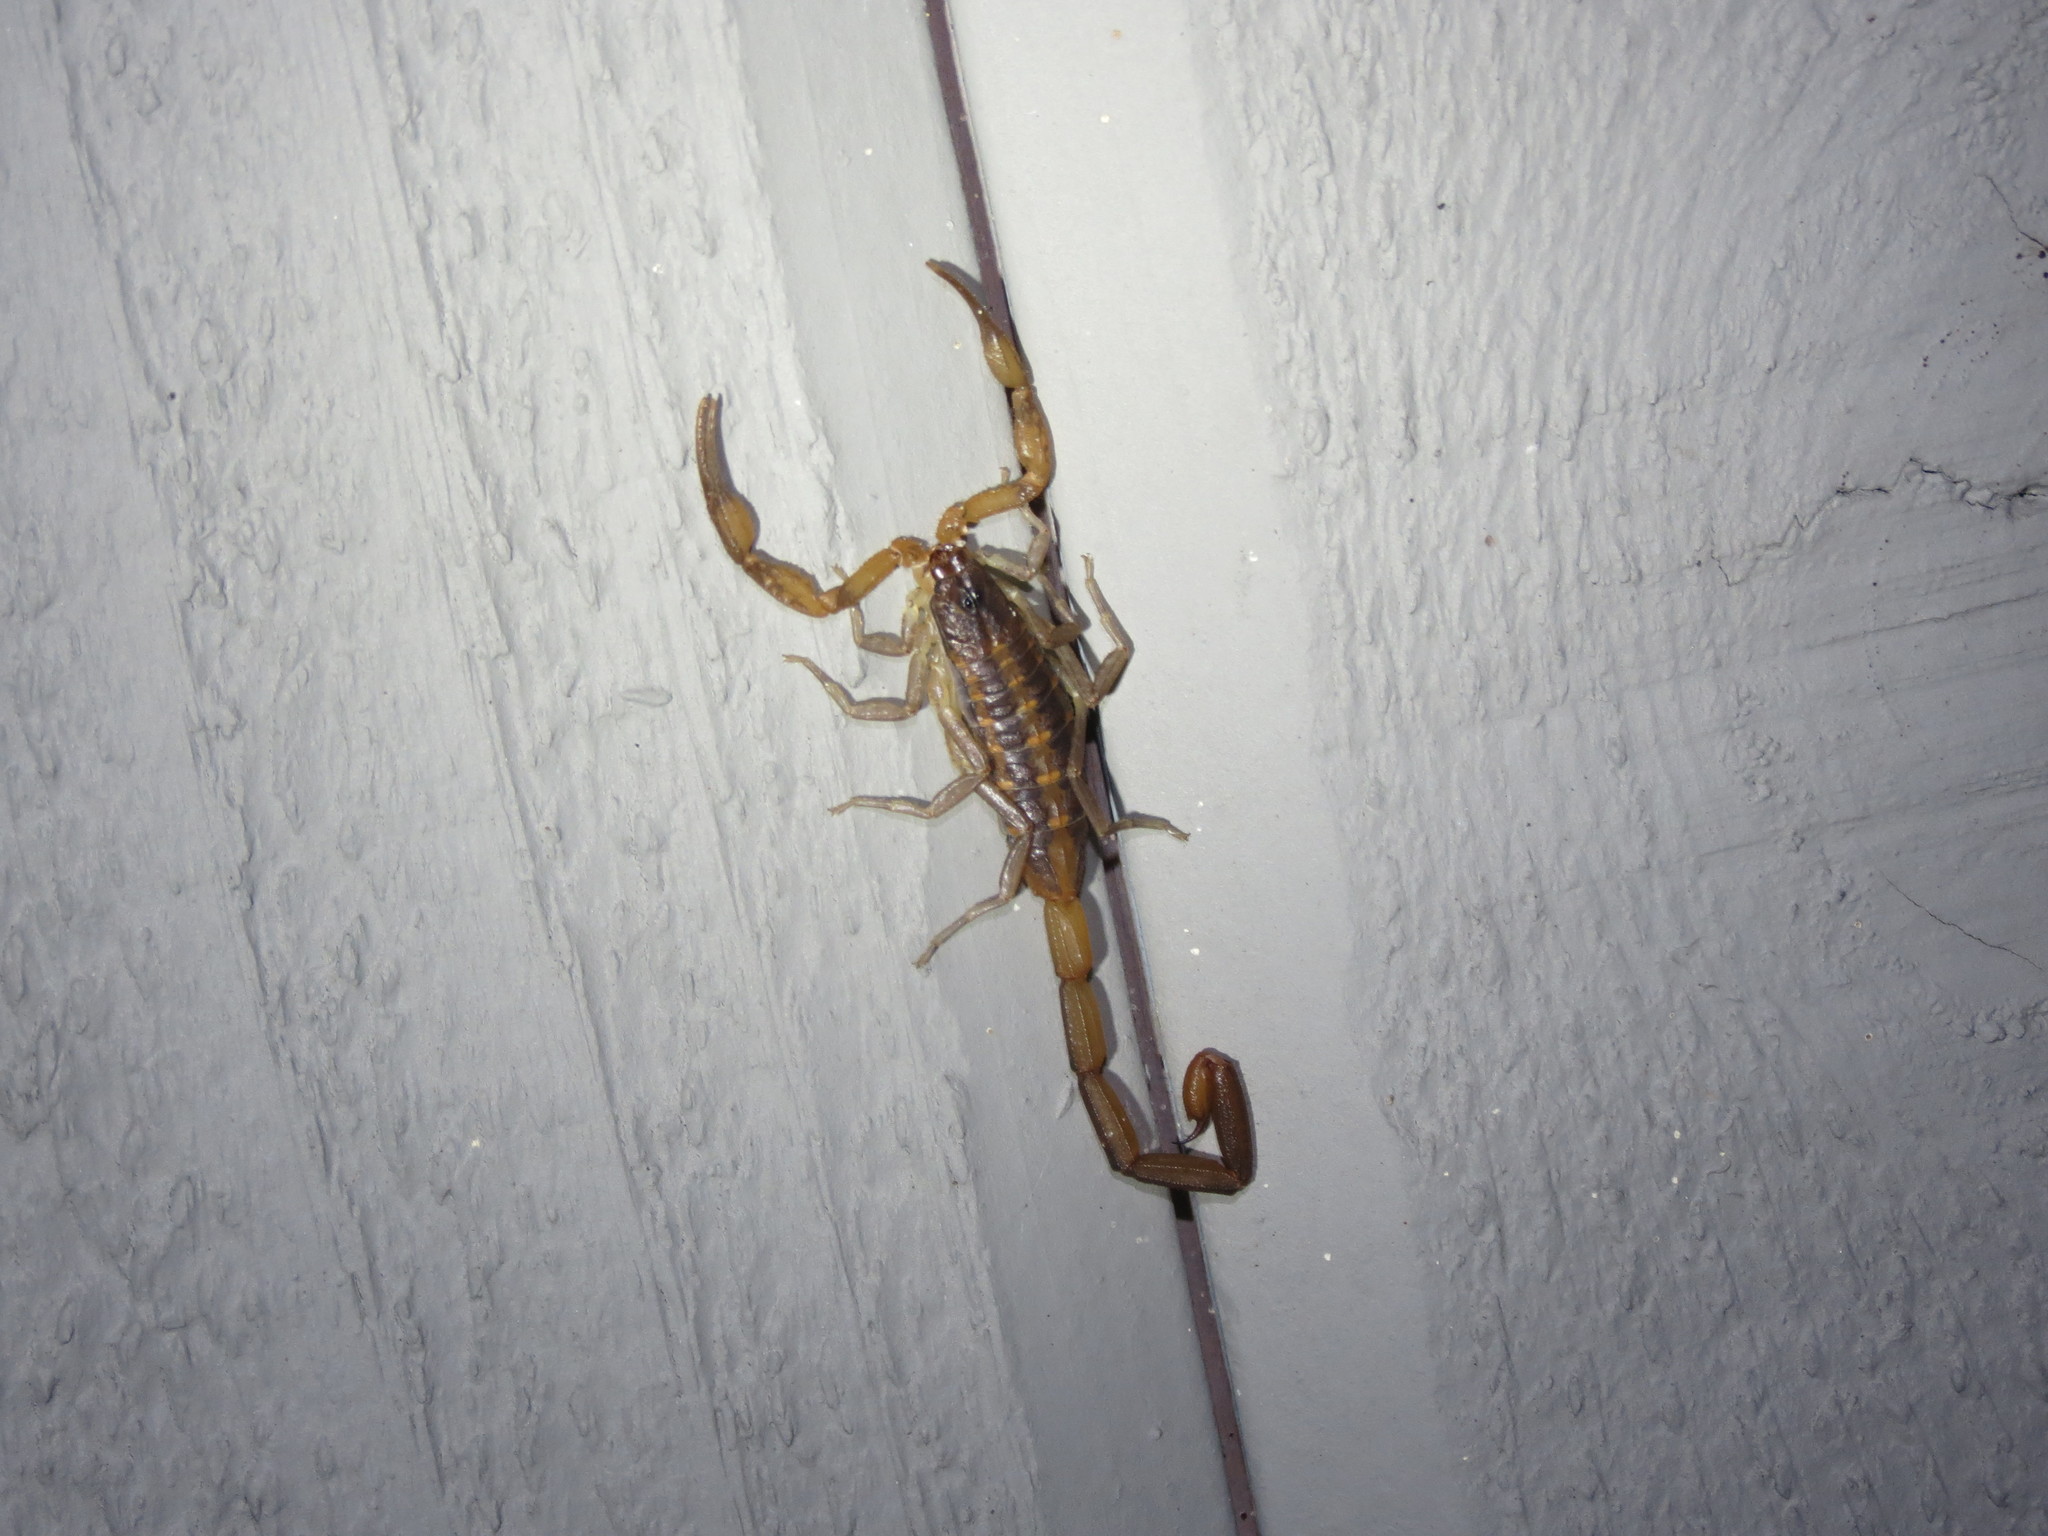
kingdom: Animalia
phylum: Arthropoda
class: Arachnida
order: Scorpiones
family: Buthidae
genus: Centruroides
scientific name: Centruroides hentzi
